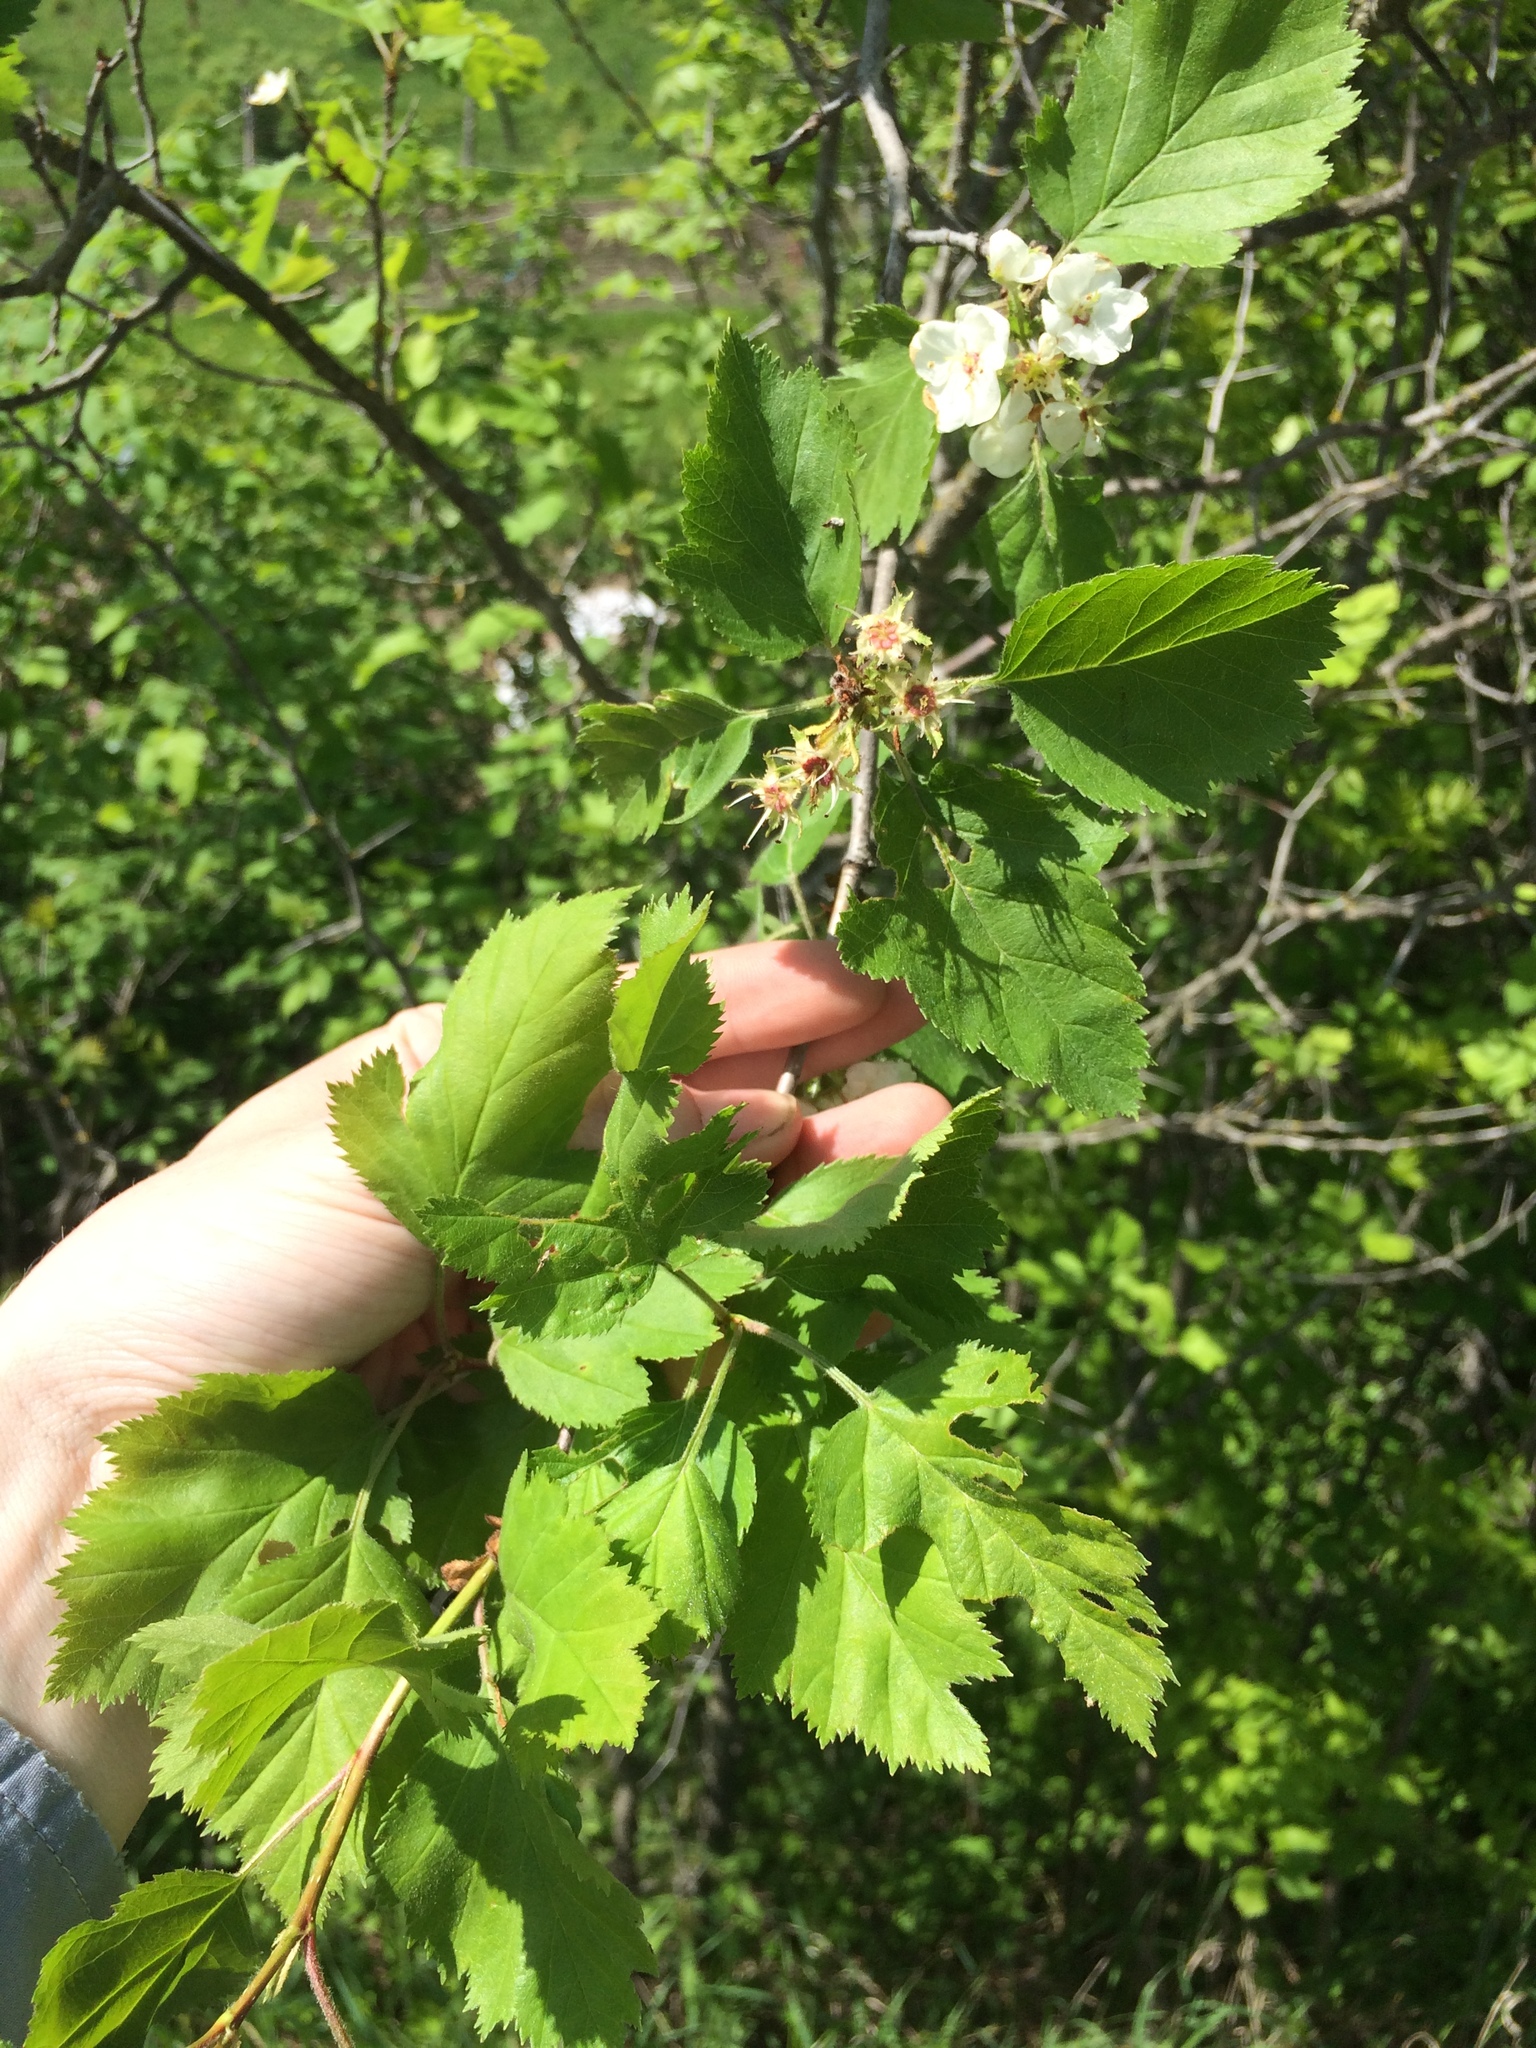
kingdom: Plantae
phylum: Tracheophyta
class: Magnoliopsida
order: Rosales
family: Rosaceae
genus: Crataegus
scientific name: Crataegus submollis
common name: Hairy cockspurthorn
